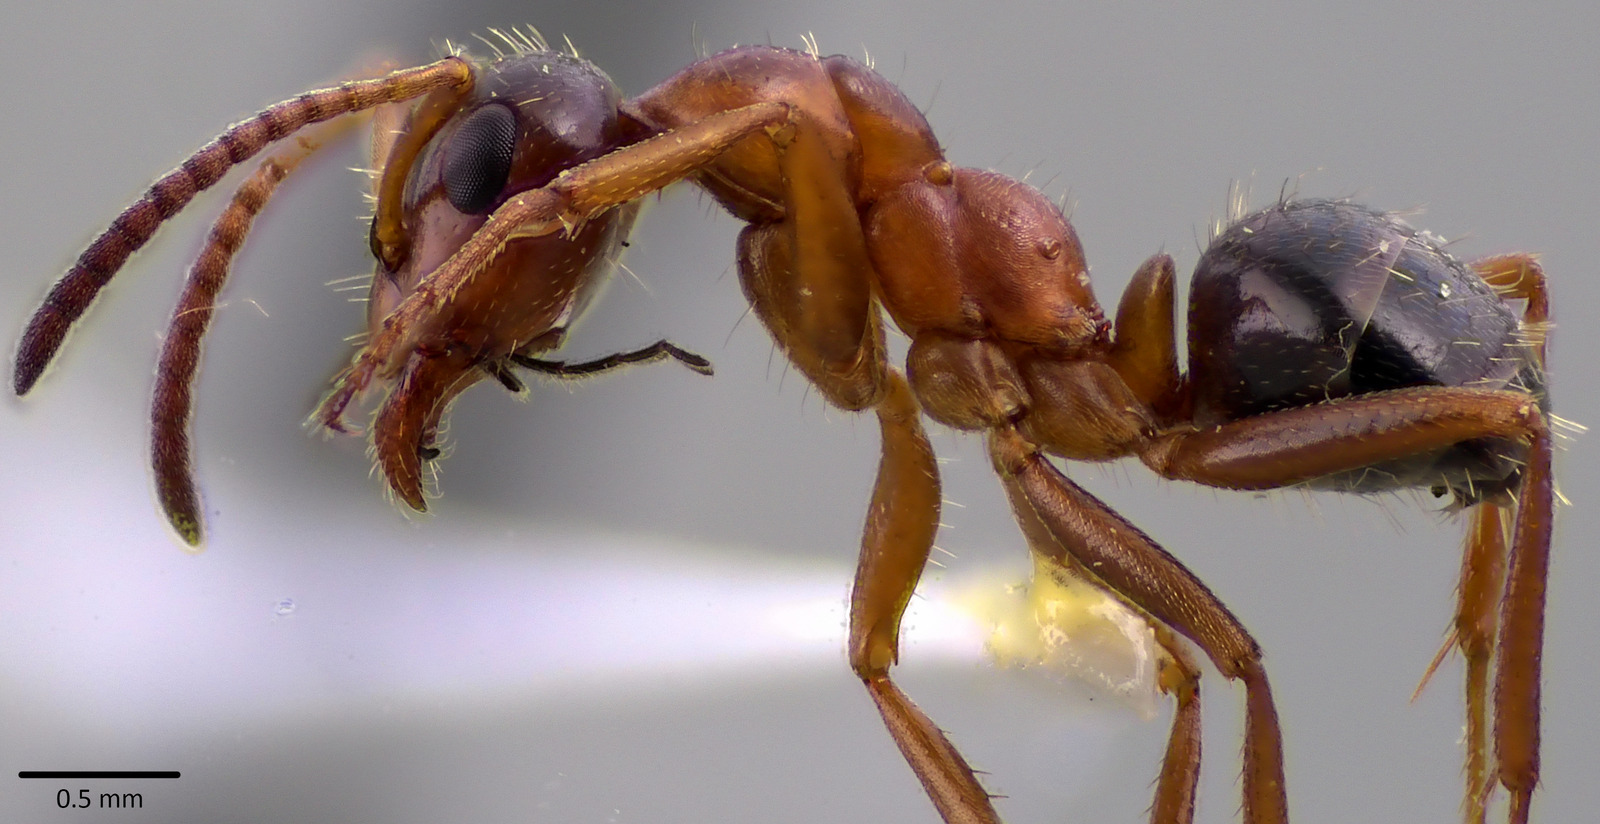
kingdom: Animalia
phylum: Arthropoda
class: Insecta
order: Hymenoptera
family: Formicidae
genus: Formica
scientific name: Formica vinculans
